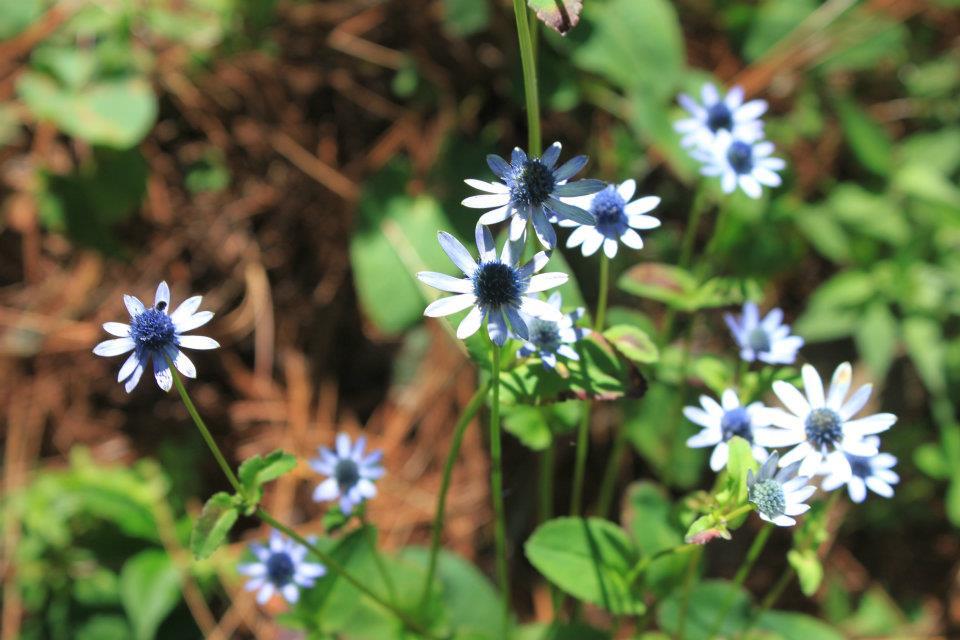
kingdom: Plantae
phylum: Tracheophyta
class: Magnoliopsida
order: Apiales
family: Apiaceae
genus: Eryngium
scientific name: Eryngium gracile
